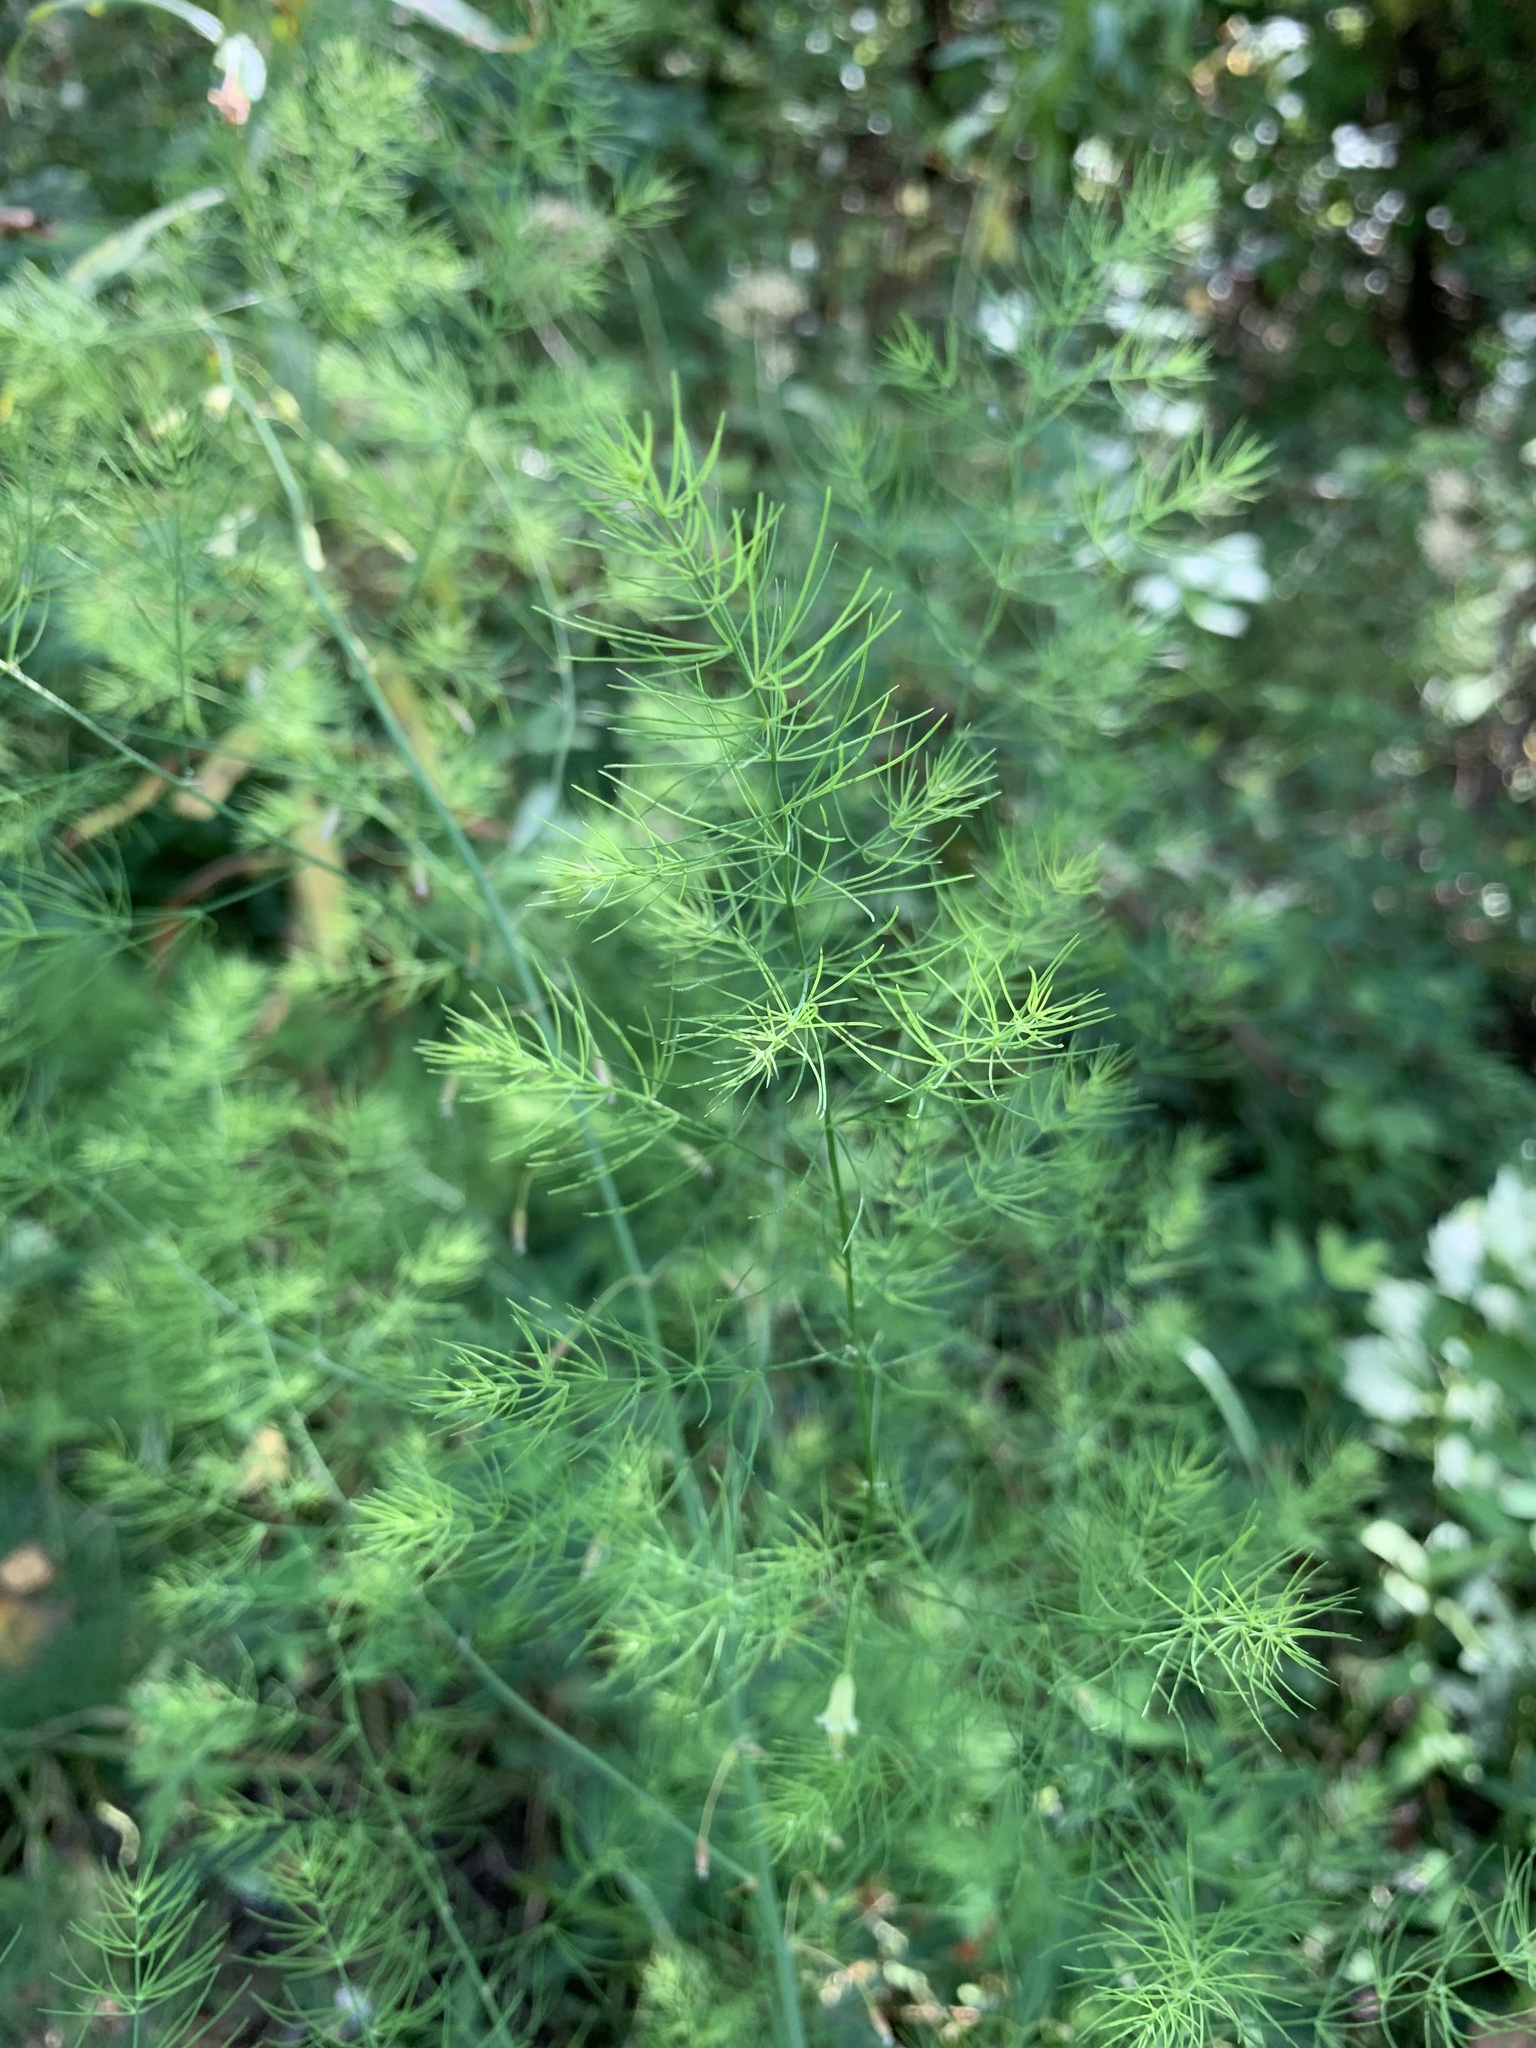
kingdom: Plantae
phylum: Tracheophyta
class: Liliopsida
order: Asparagales
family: Asparagaceae
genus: Asparagus
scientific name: Asparagus officinalis
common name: Garden asparagus
